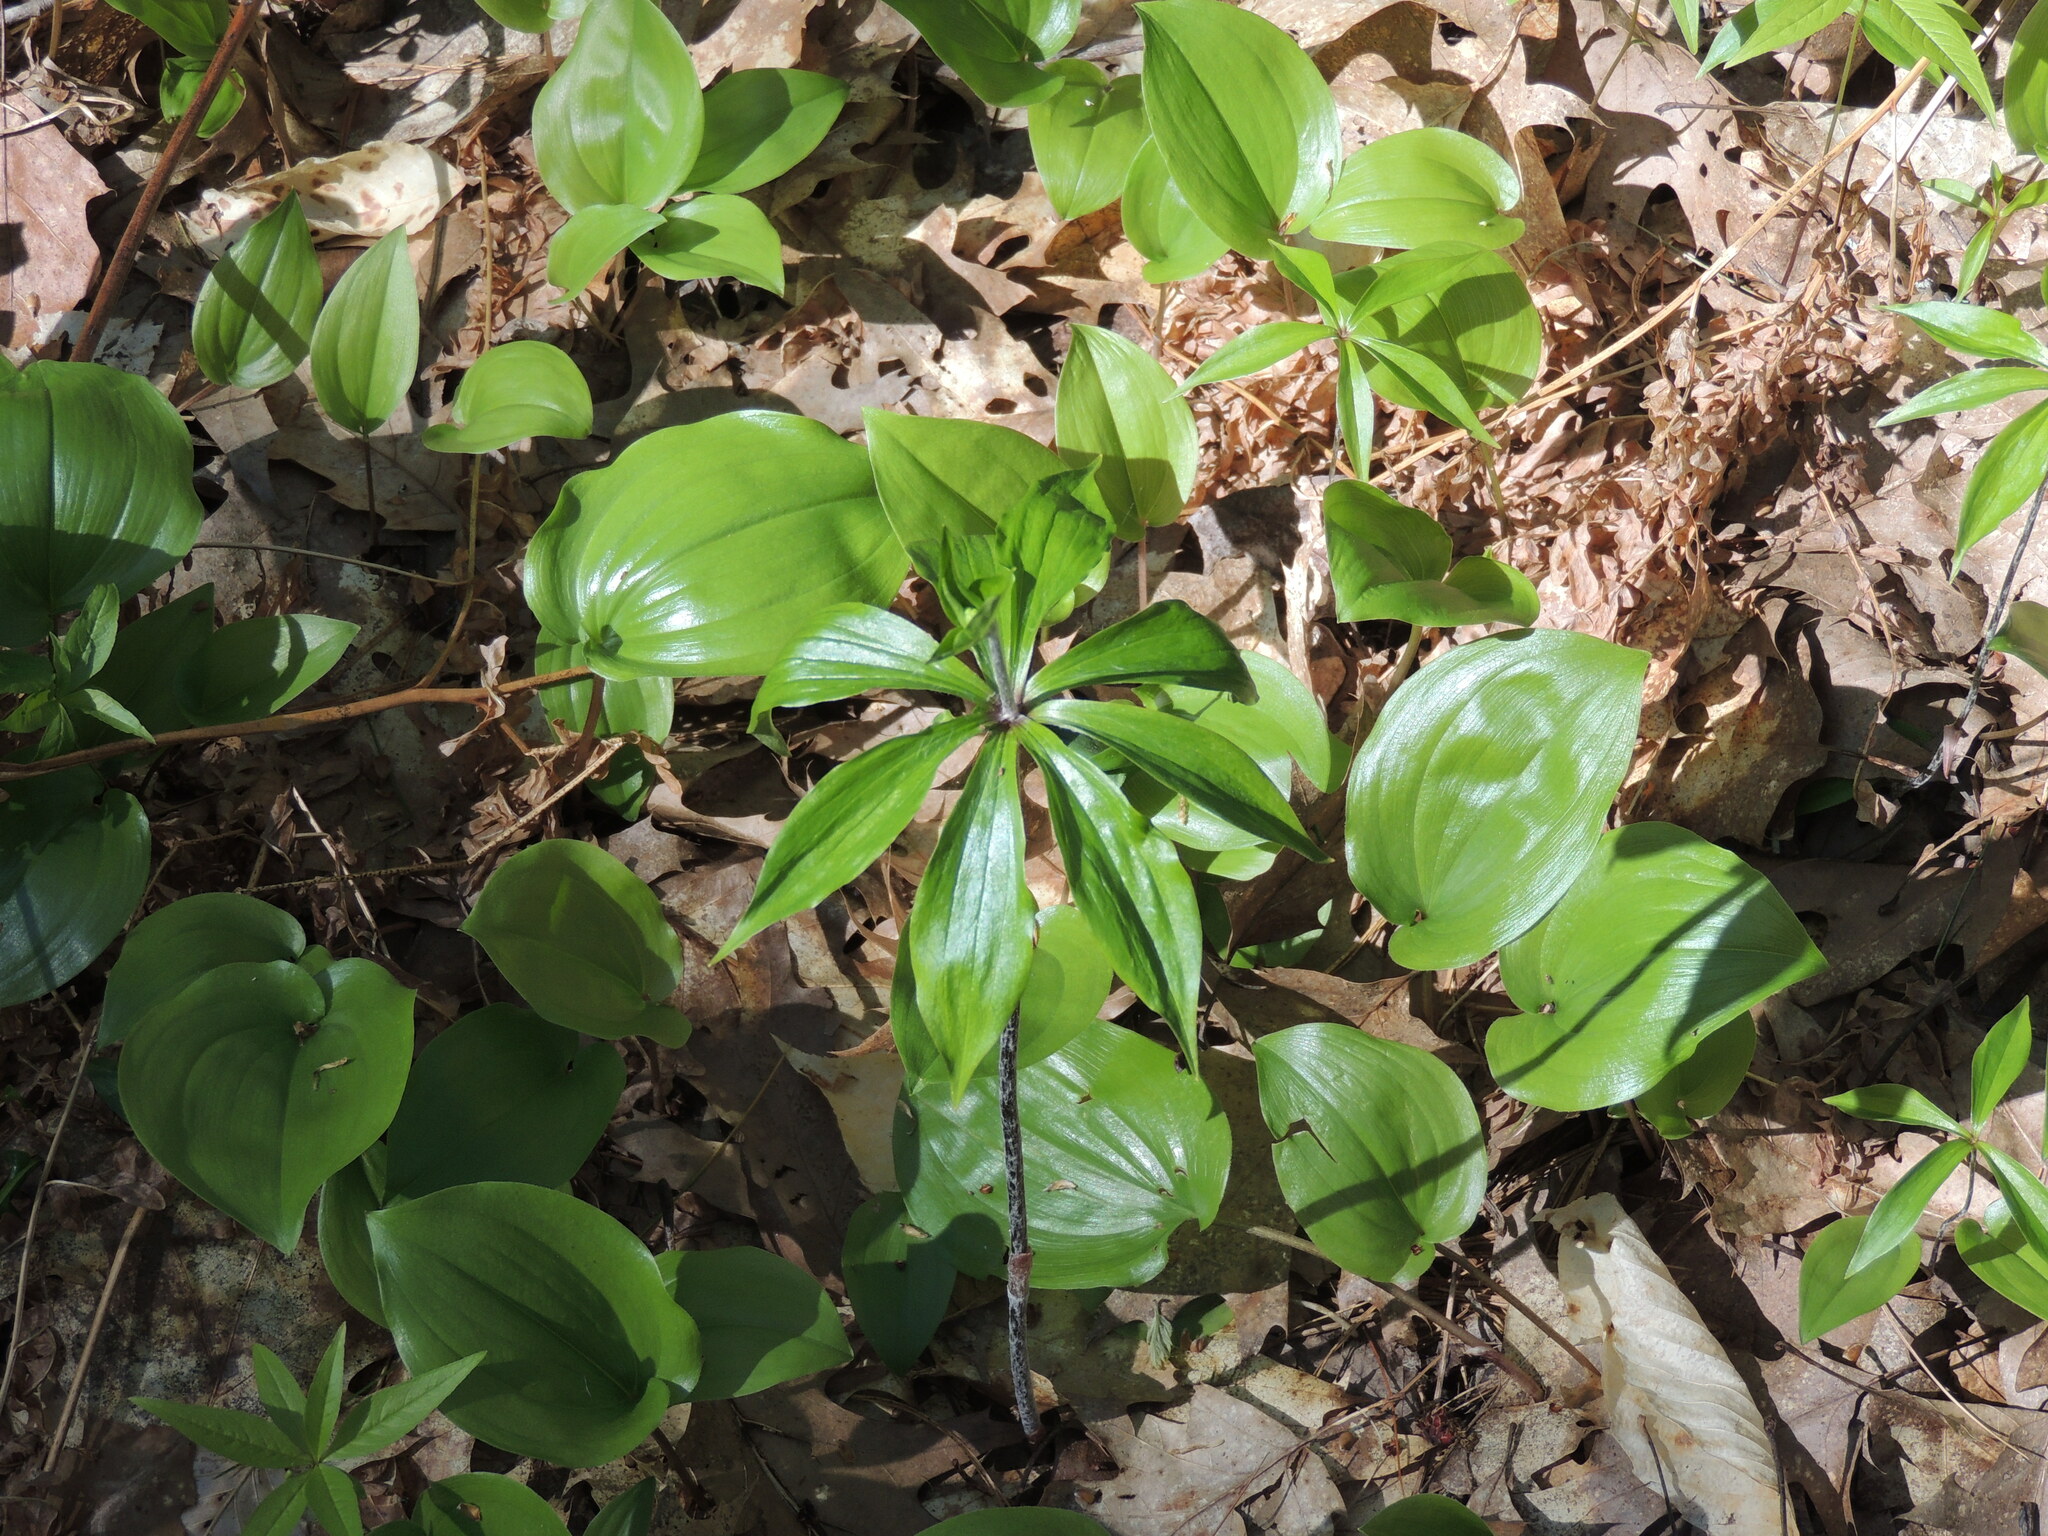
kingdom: Plantae
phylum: Tracheophyta
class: Liliopsida
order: Liliales
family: Liliaceae
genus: Medeola
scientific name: Medeola virginiana
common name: Indian cucumber-root
